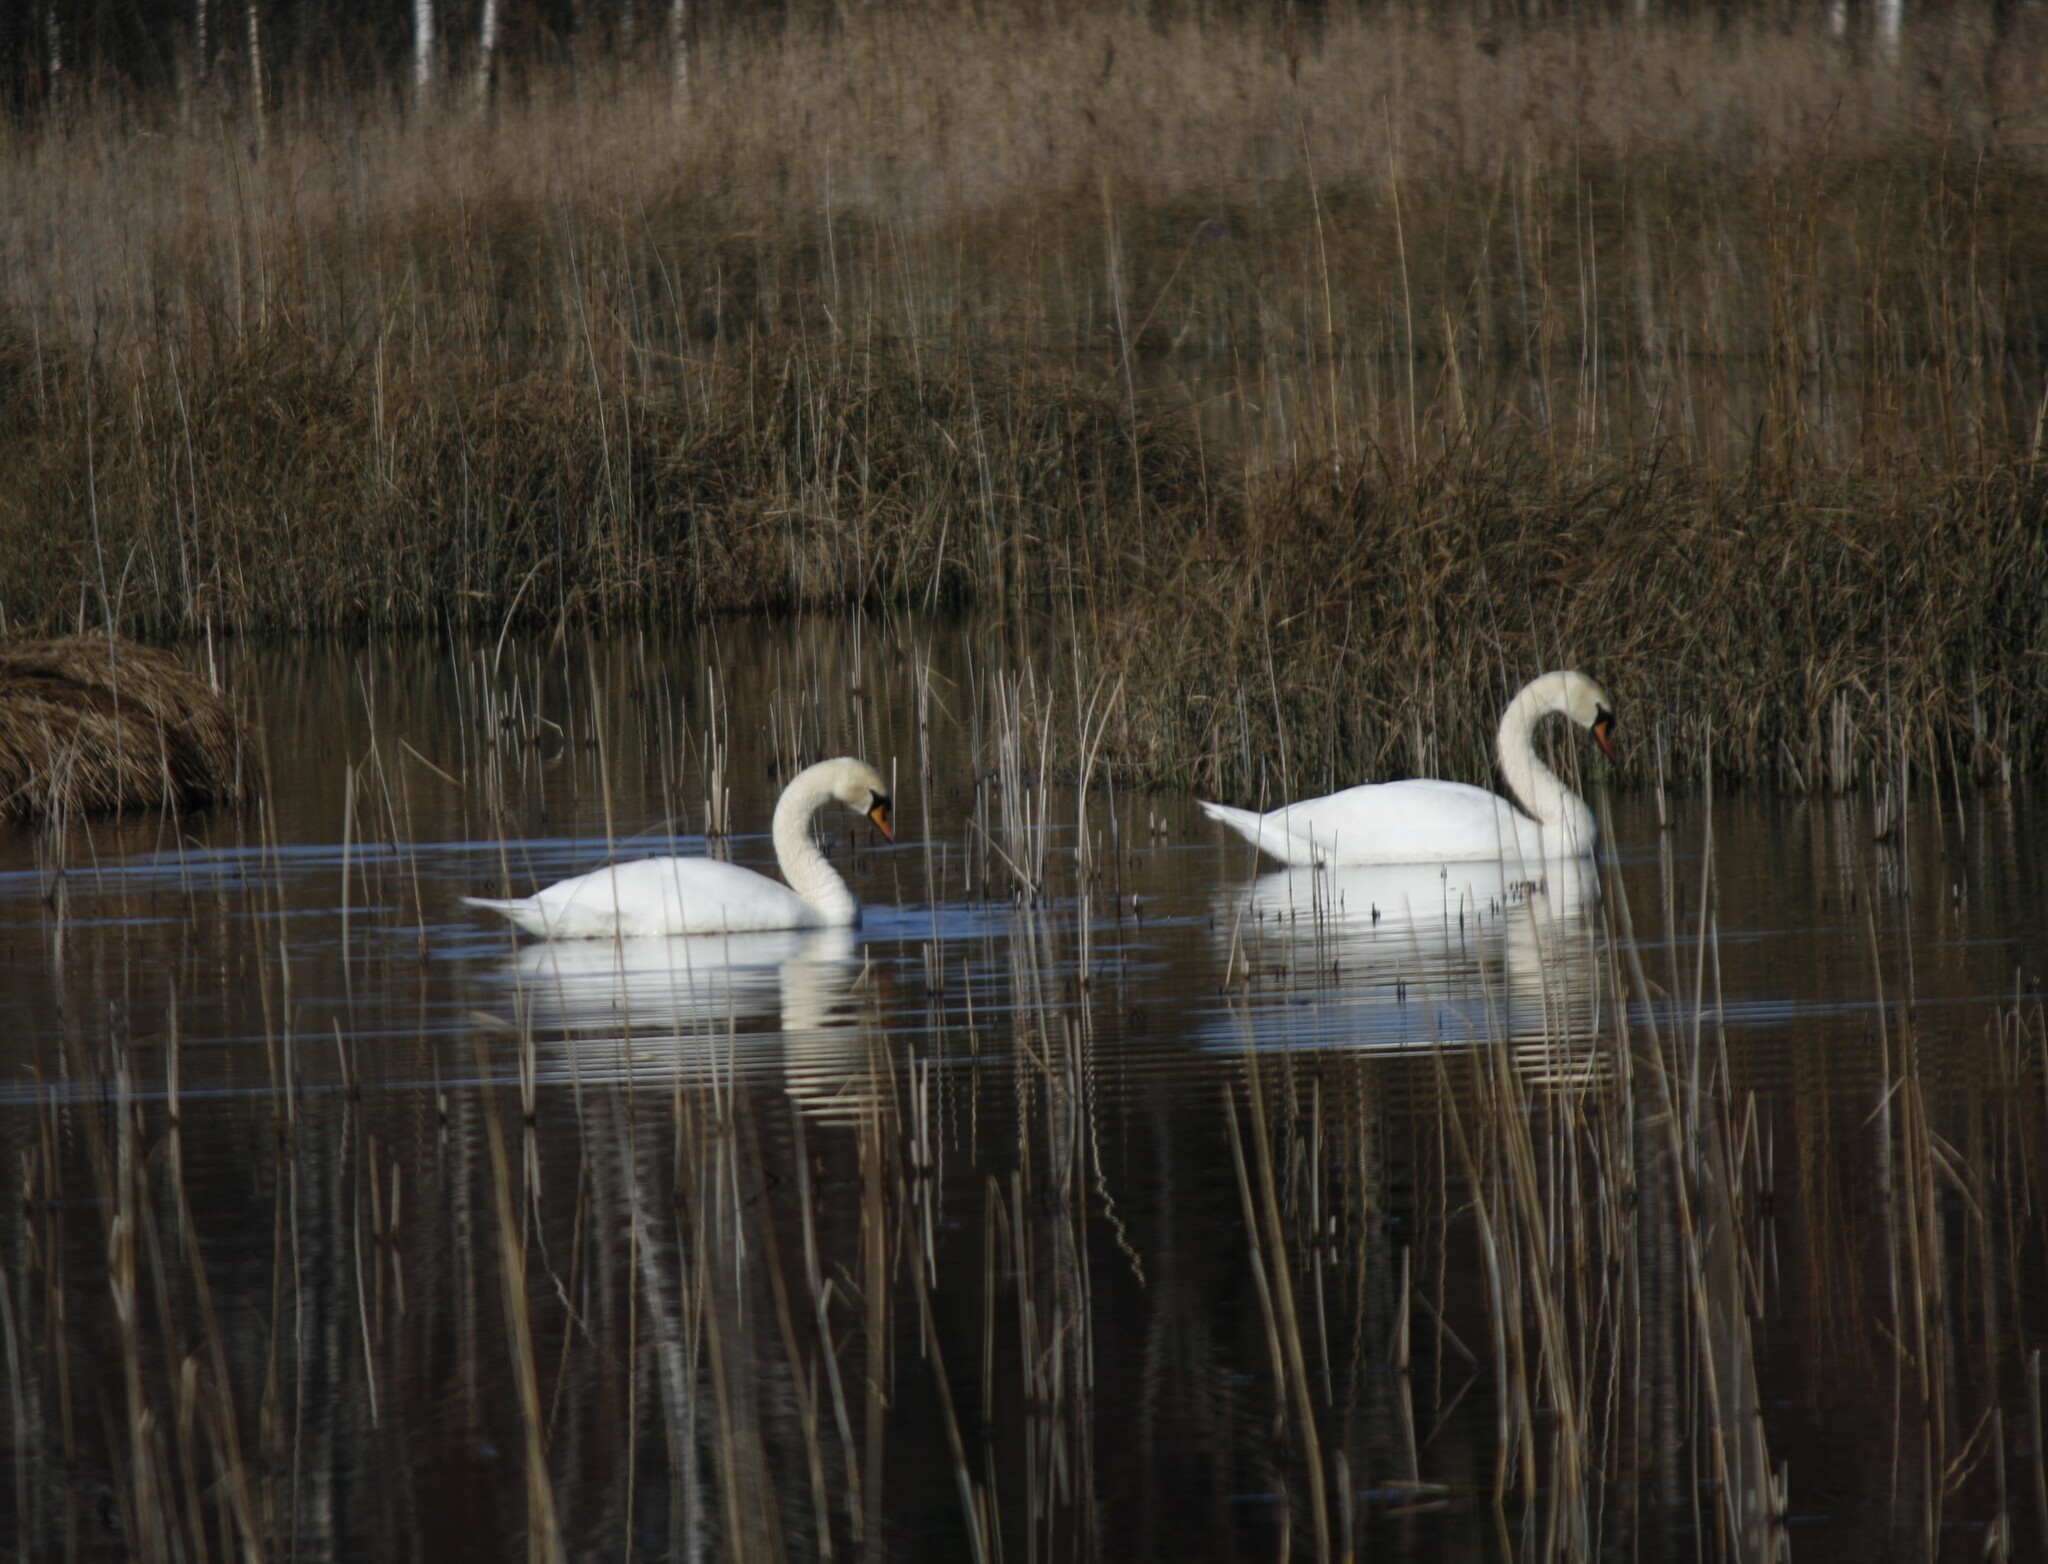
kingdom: Animalia
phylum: Chordata
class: Aves
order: Anseriformes
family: Anatidae
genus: Cygnus
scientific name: Cygnus olor
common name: Mute swan
